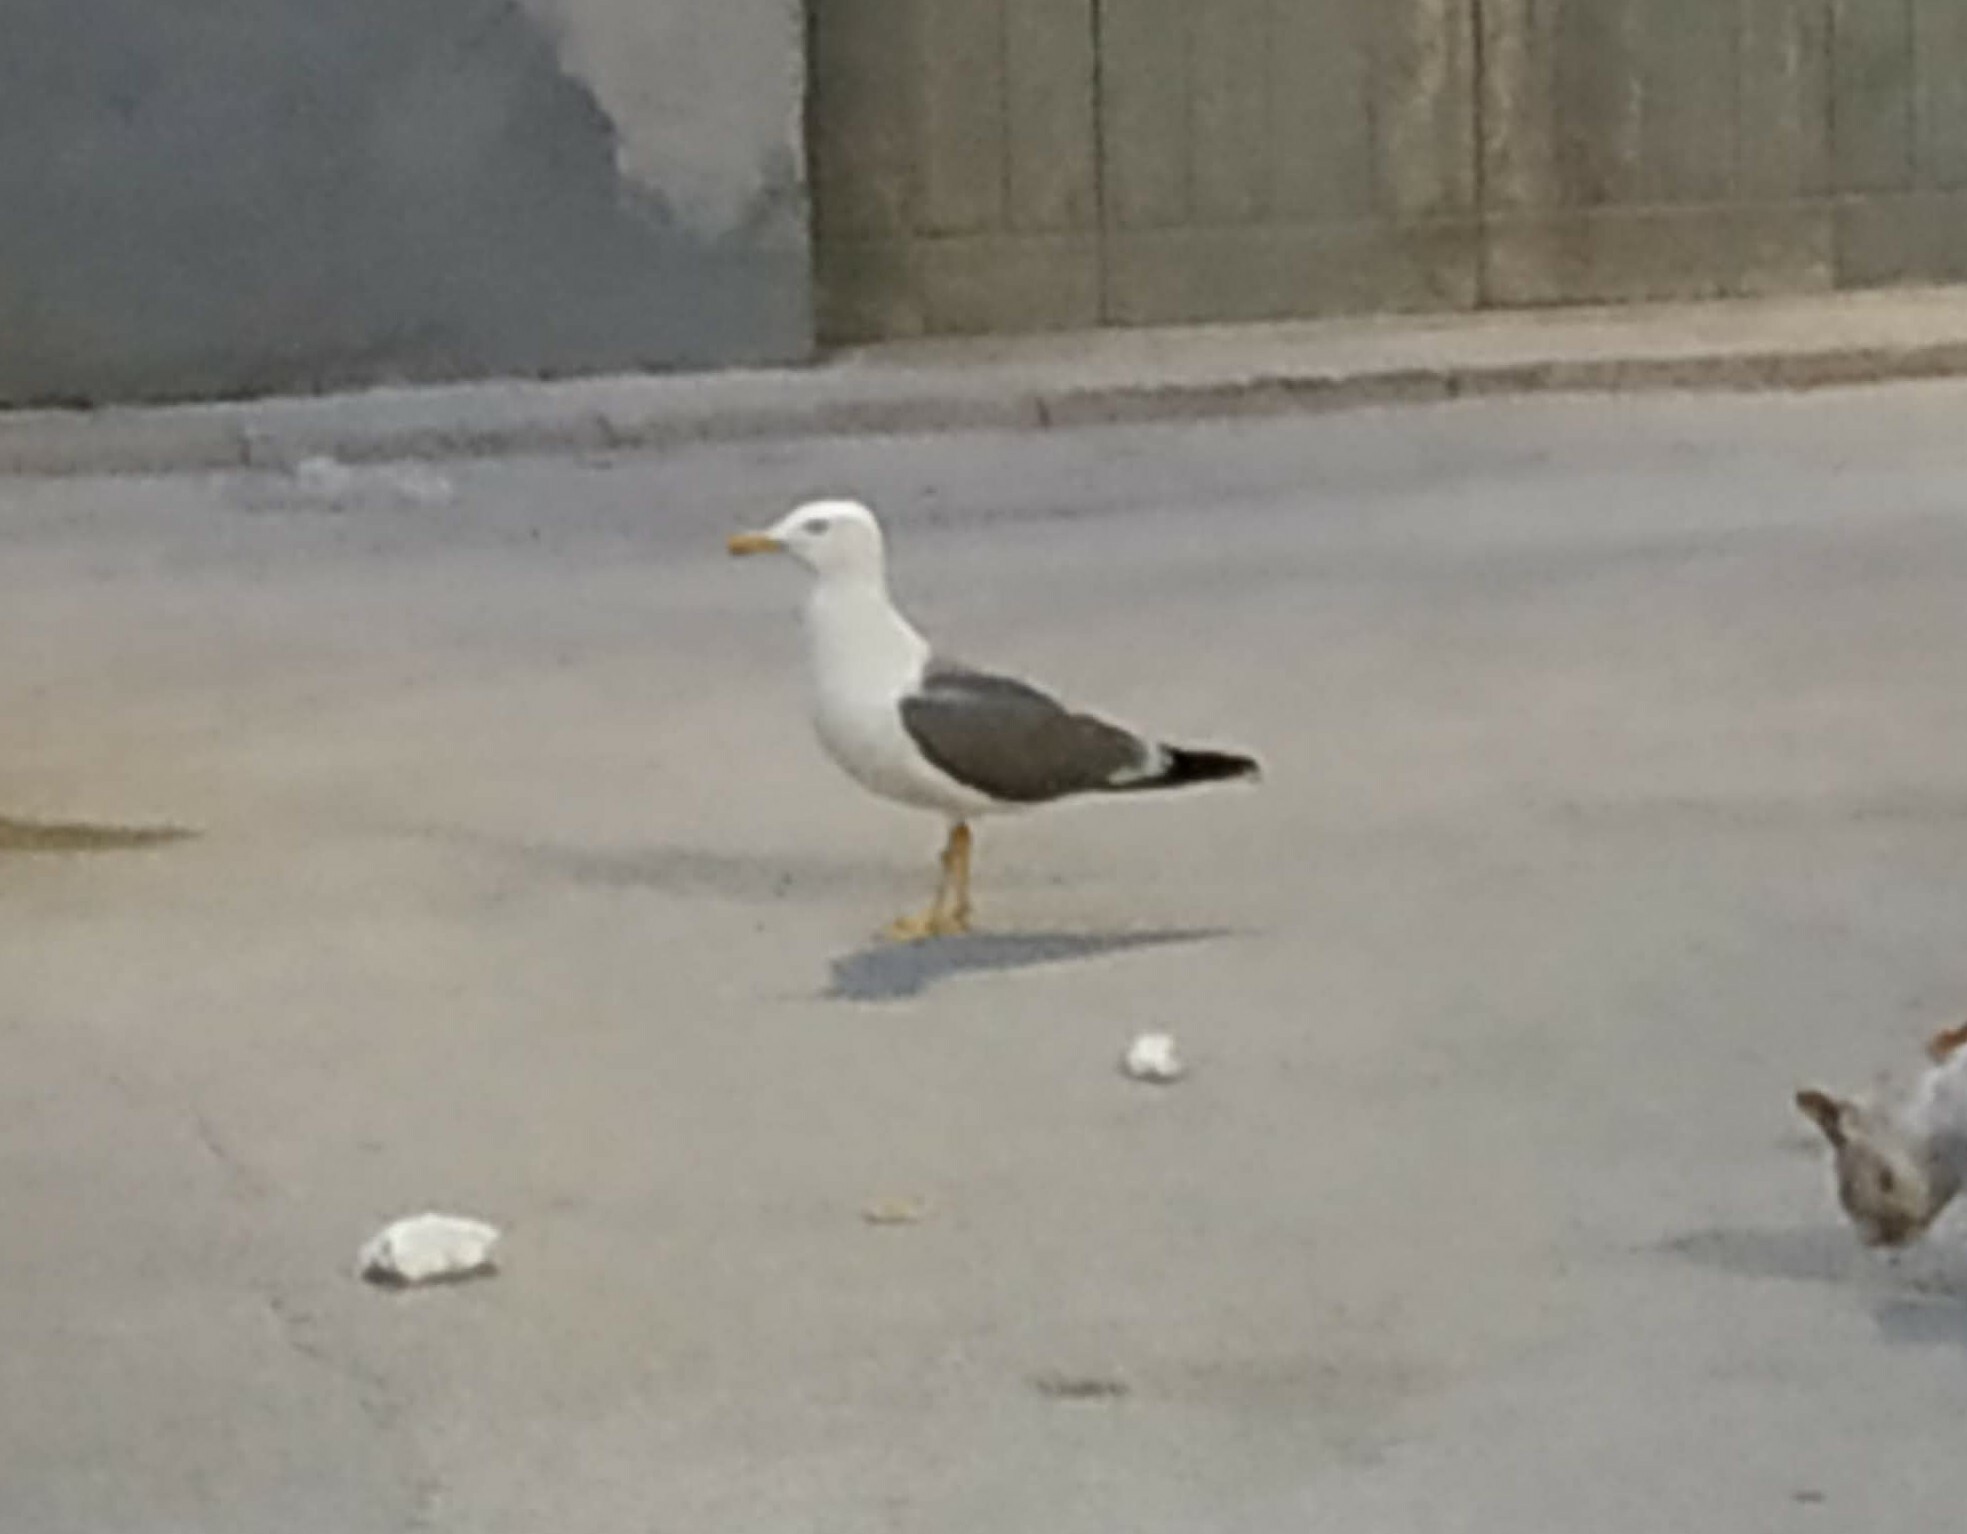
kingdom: Animalia
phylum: Chordata
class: Aves
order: Charadriiformes
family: Laridae
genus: Larus
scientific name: Larus michahellis
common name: Yellow-legged gull
